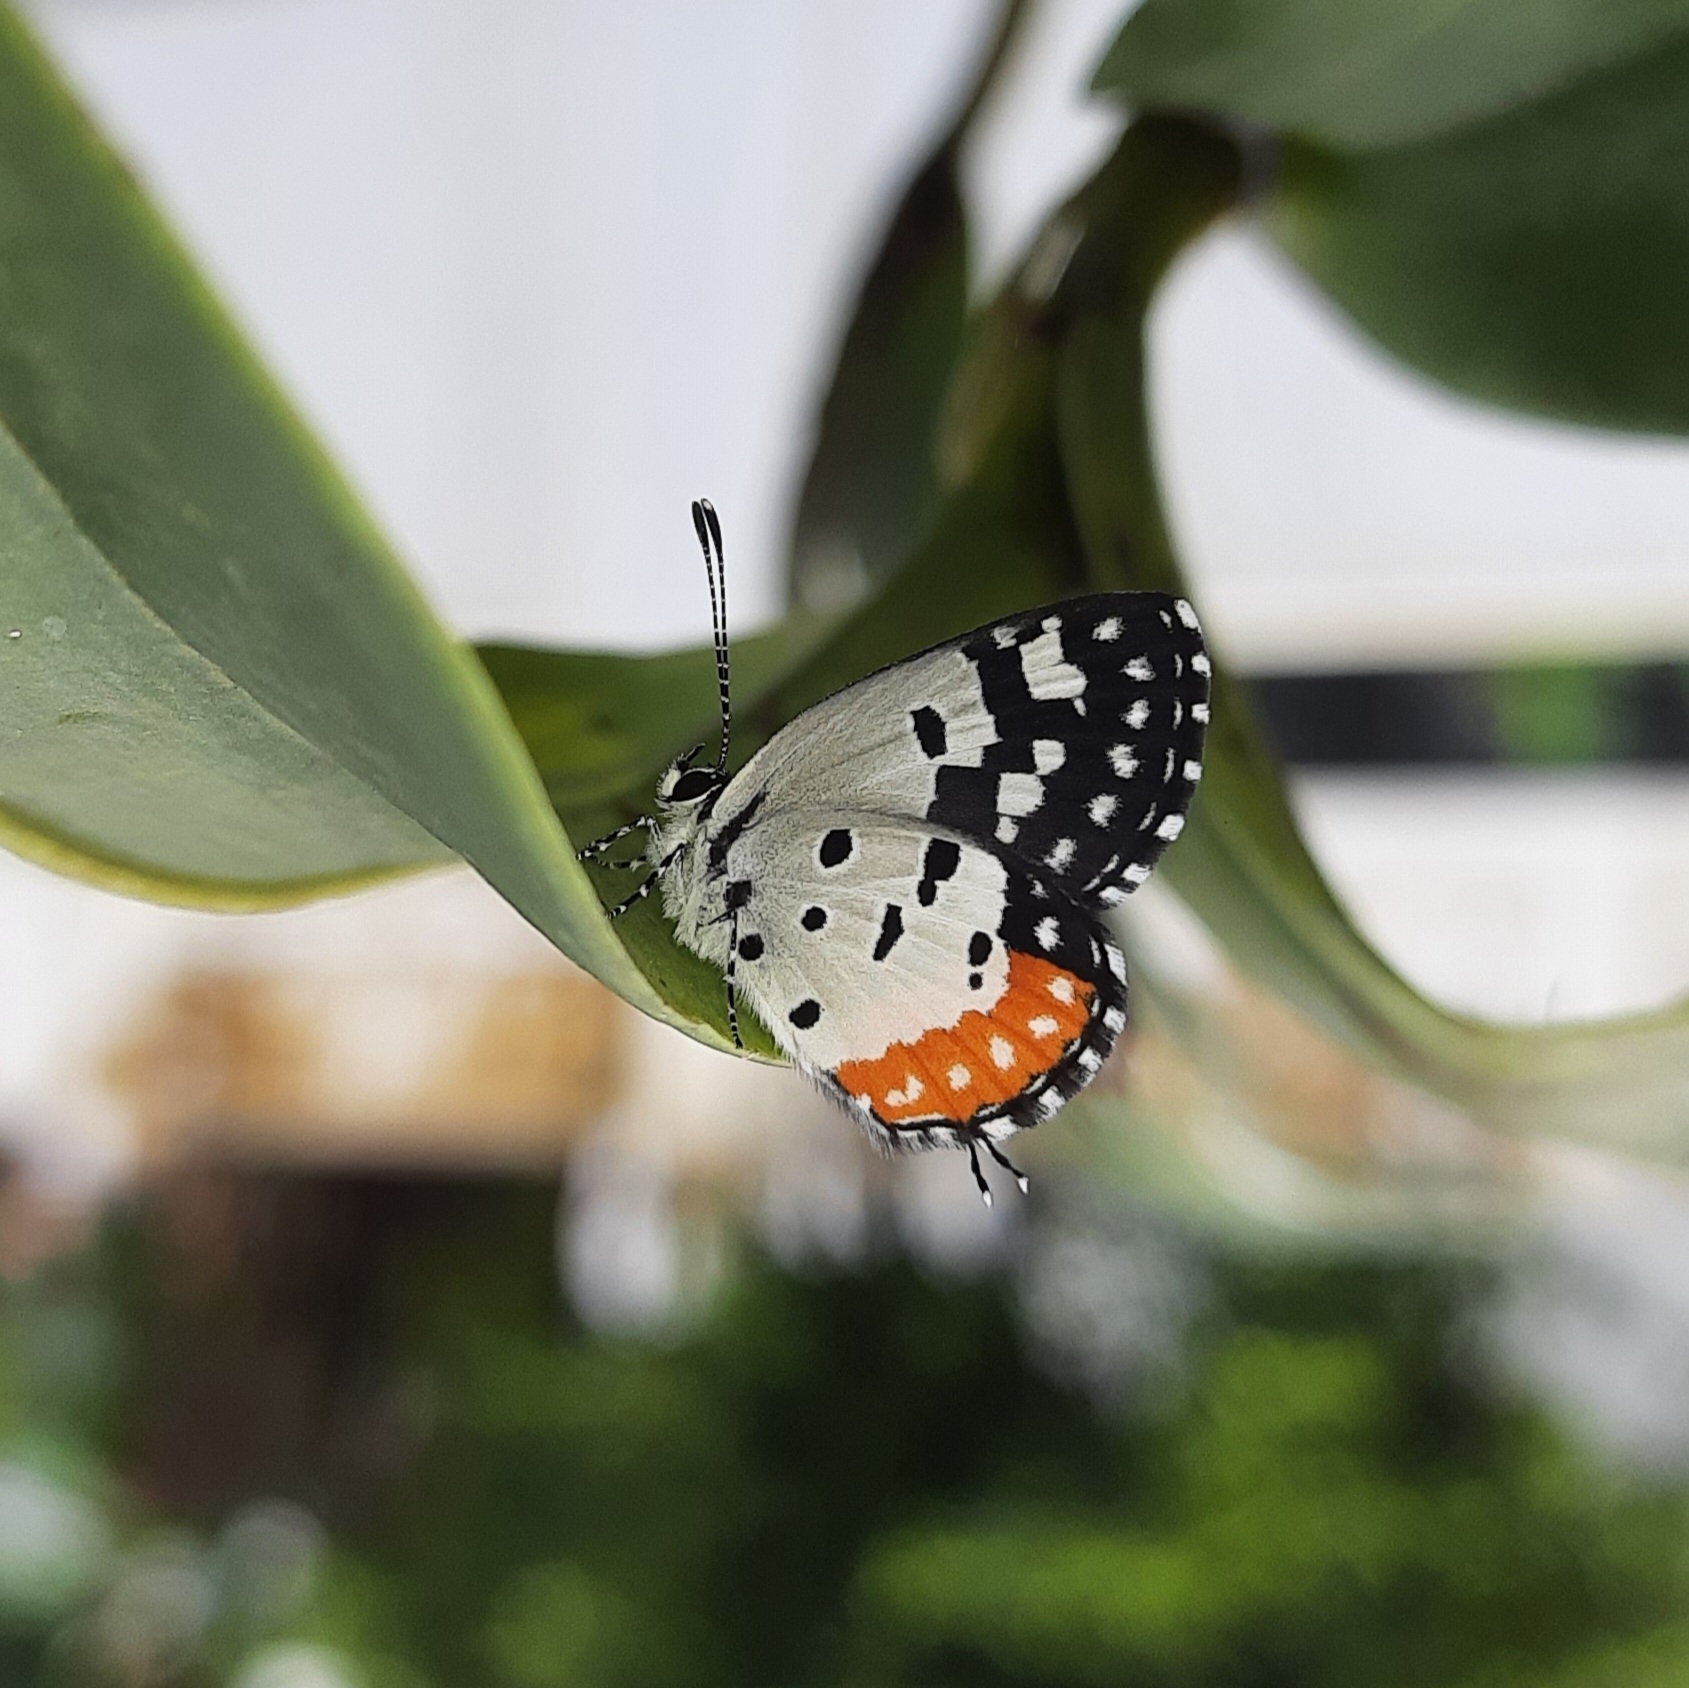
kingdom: Animalia
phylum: Arthropoda
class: Insecta
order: Lepidoptera
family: Lycaenidae
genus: Talicada
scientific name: Talicada nyseus
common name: Red pierrot
